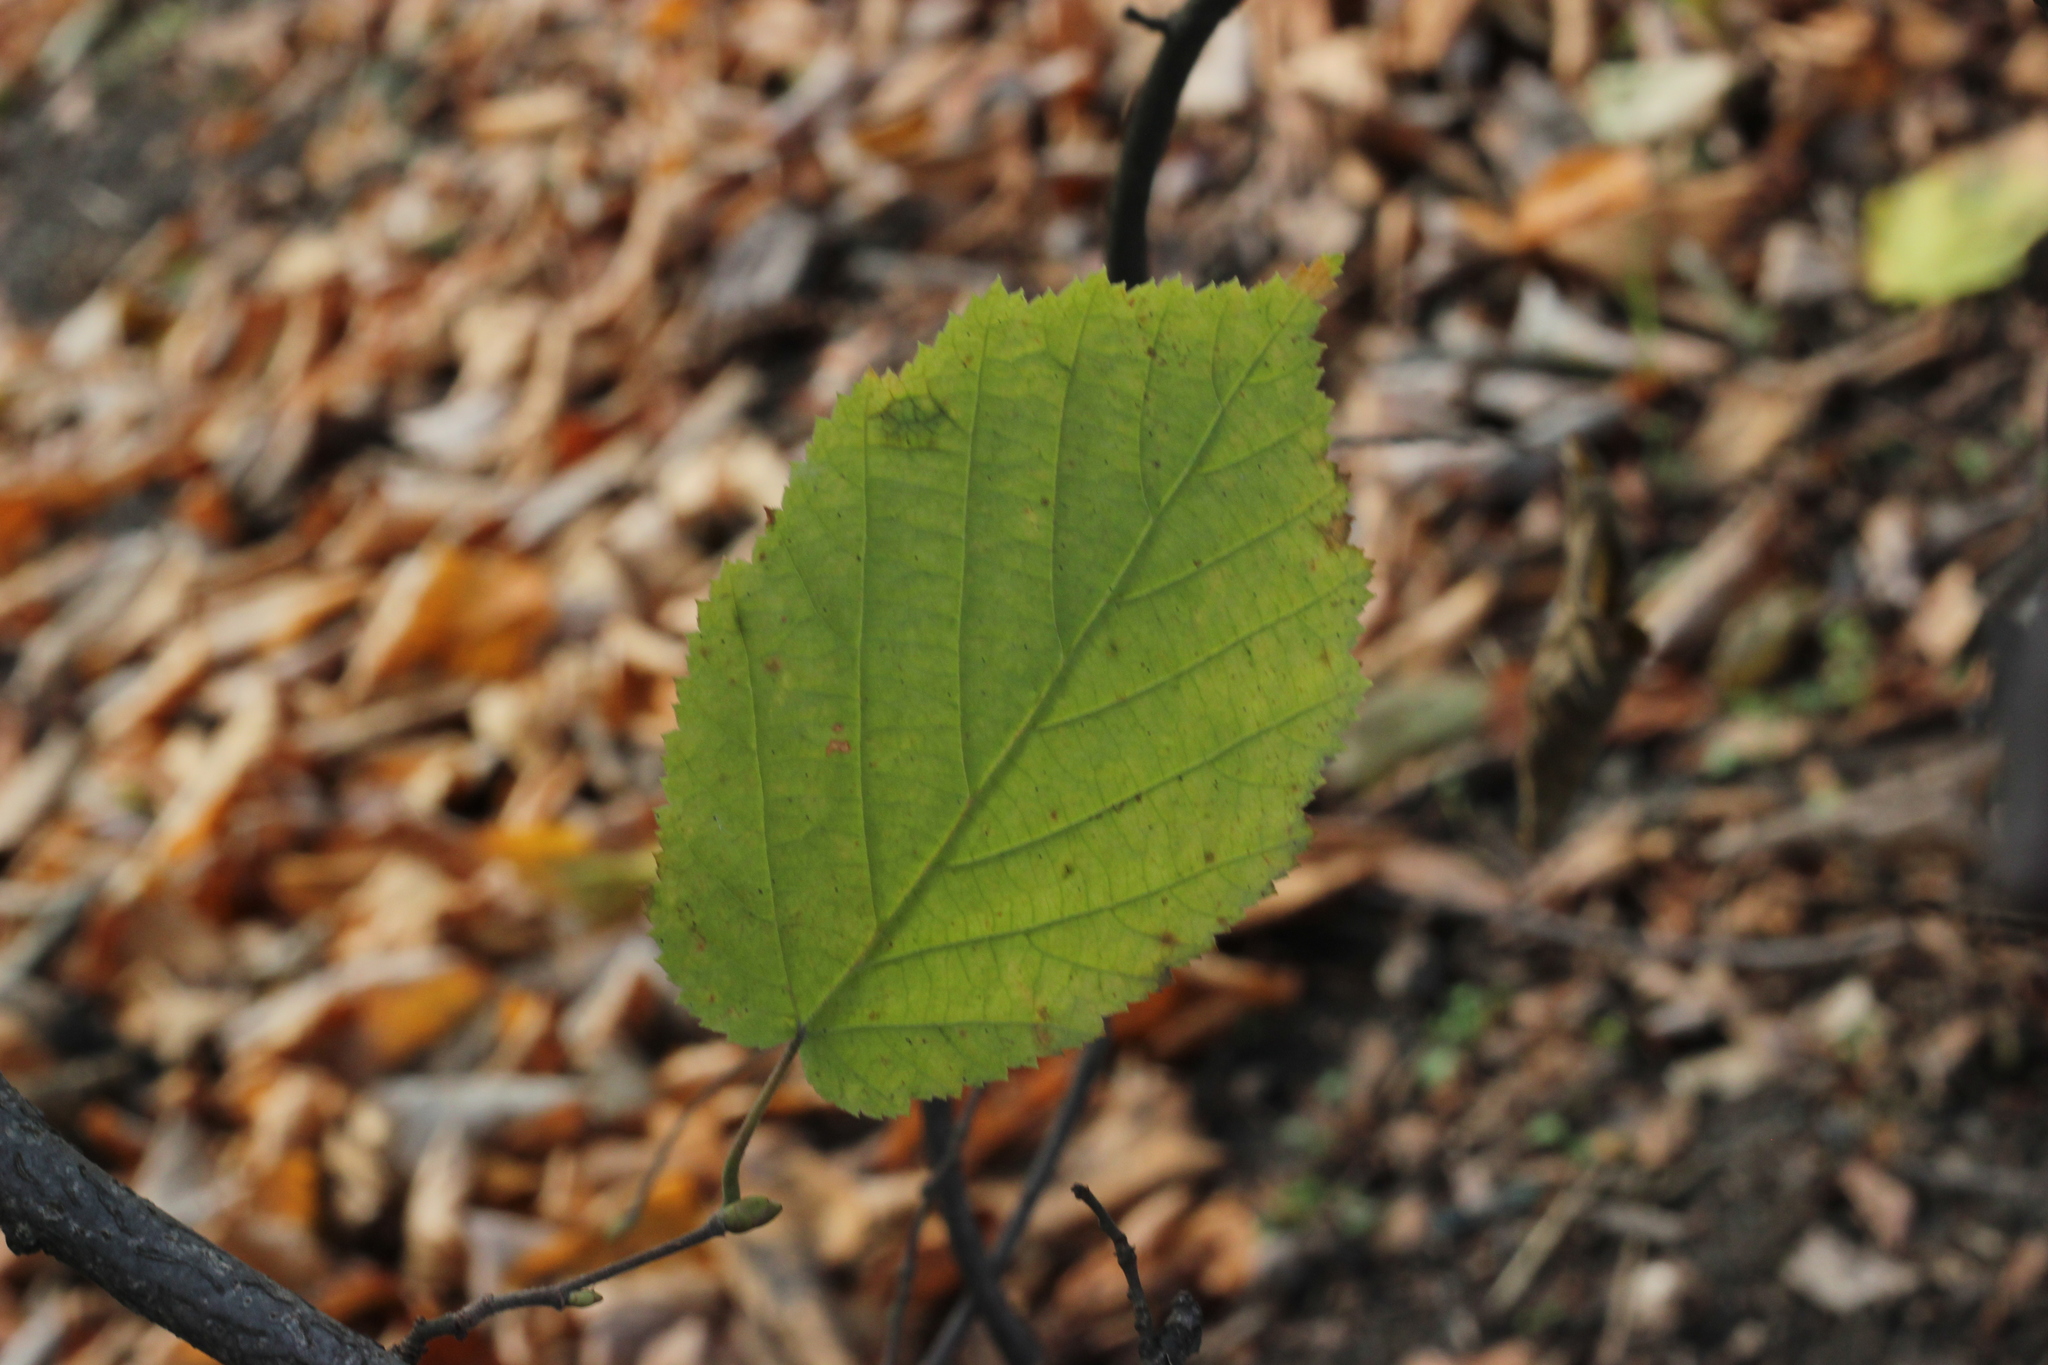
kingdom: Plantae
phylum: Tracheophyta
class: Magnoliopsida
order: Fagales
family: Betulaceae
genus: Corylus
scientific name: Corylus avellana
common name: European hazel
